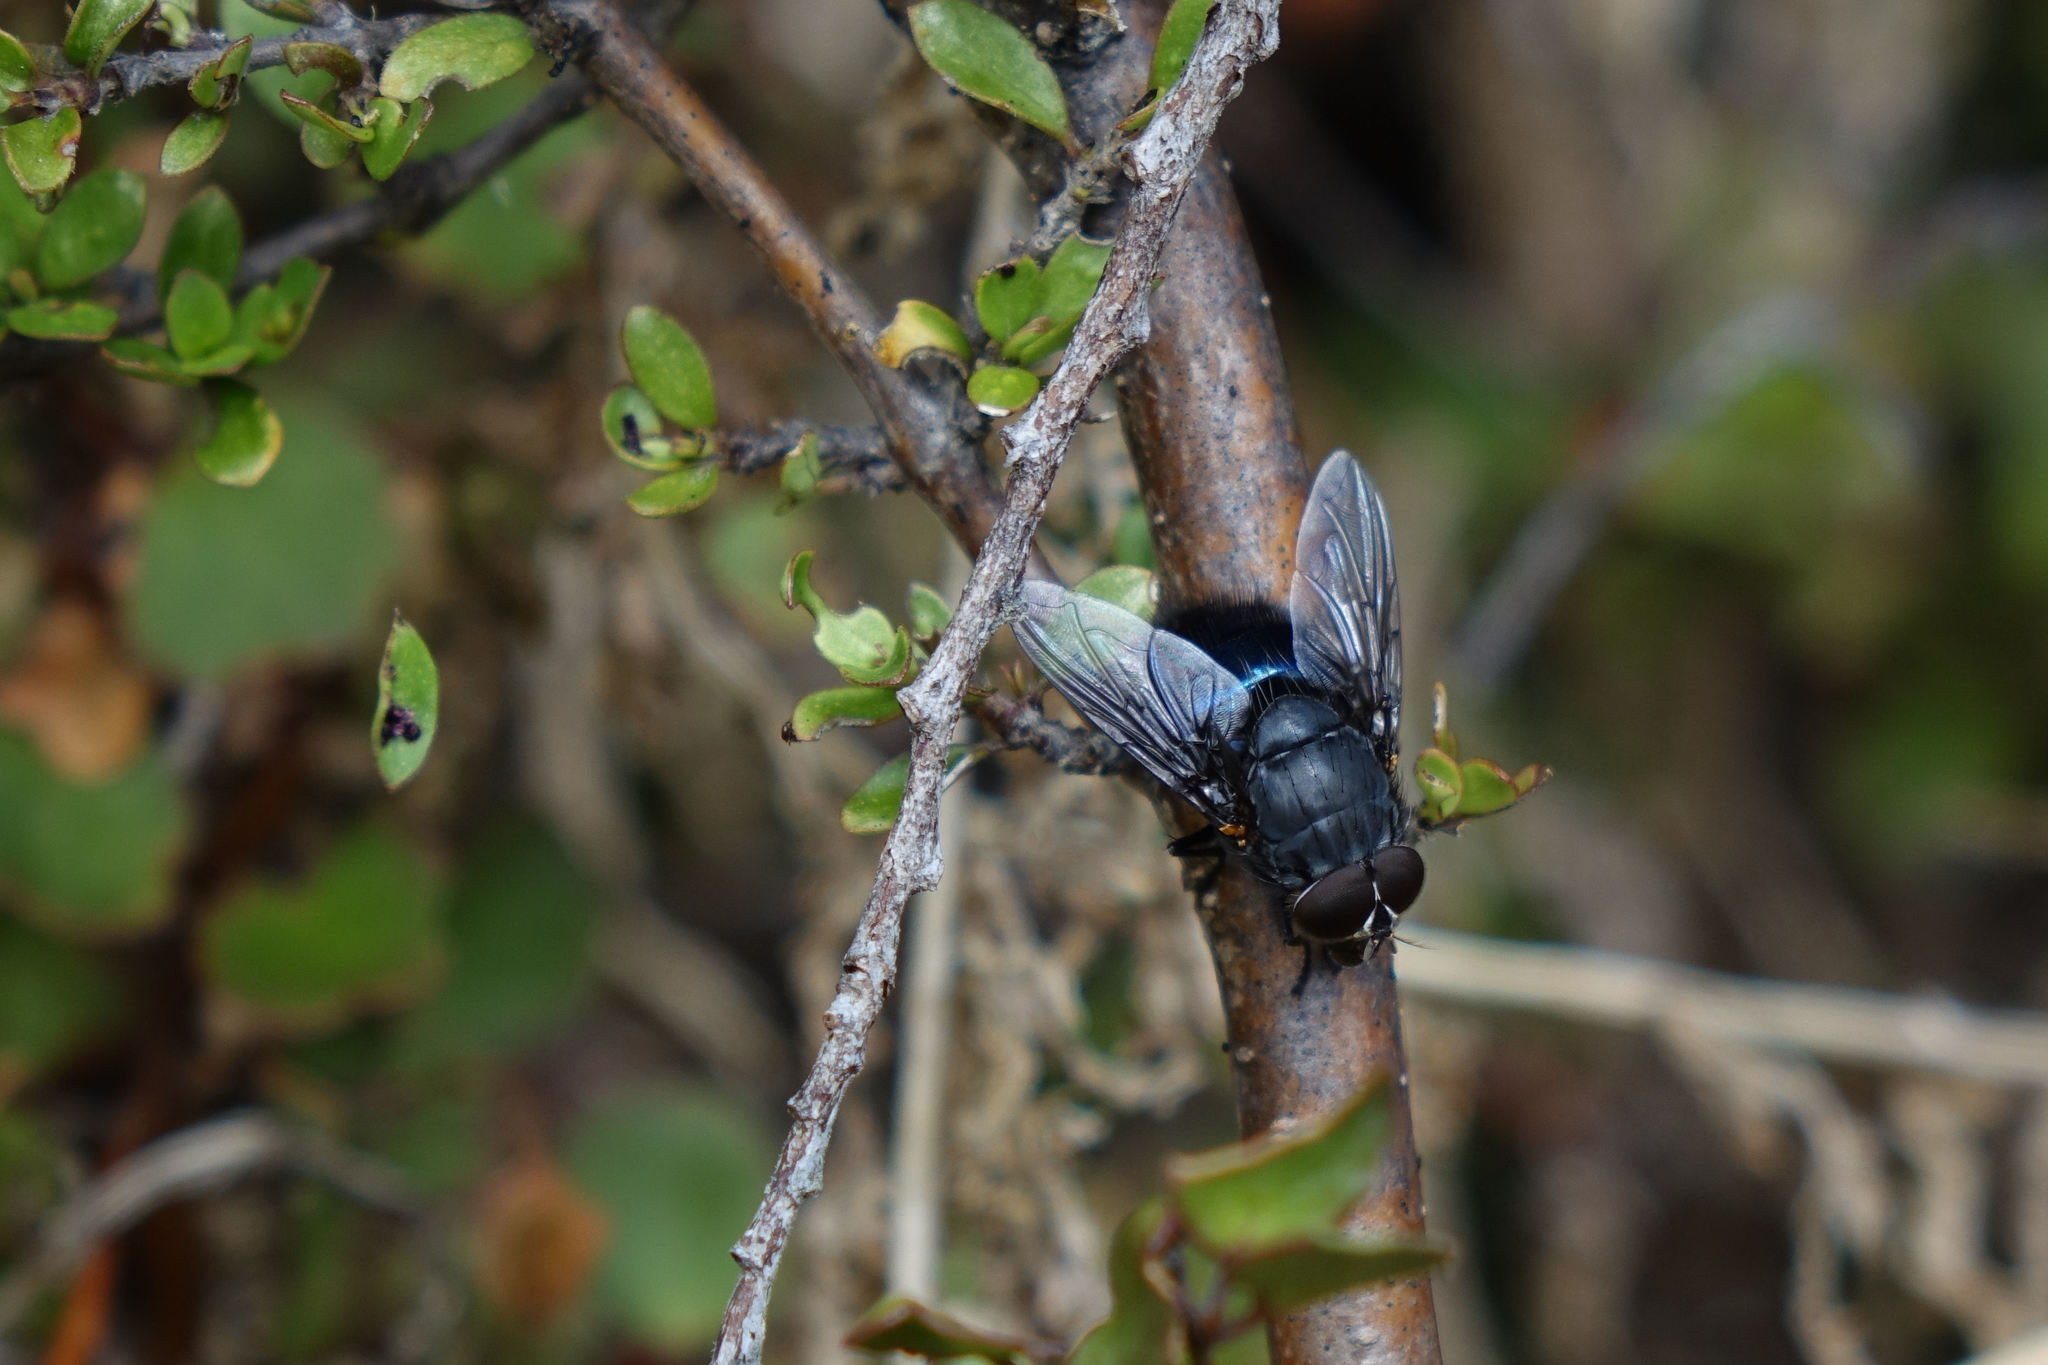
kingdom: Animalia
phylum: Arthropoda
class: Insecta
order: Diptera
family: Calliphoridae
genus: Calliphora
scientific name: Calliphora quadrimaculata
